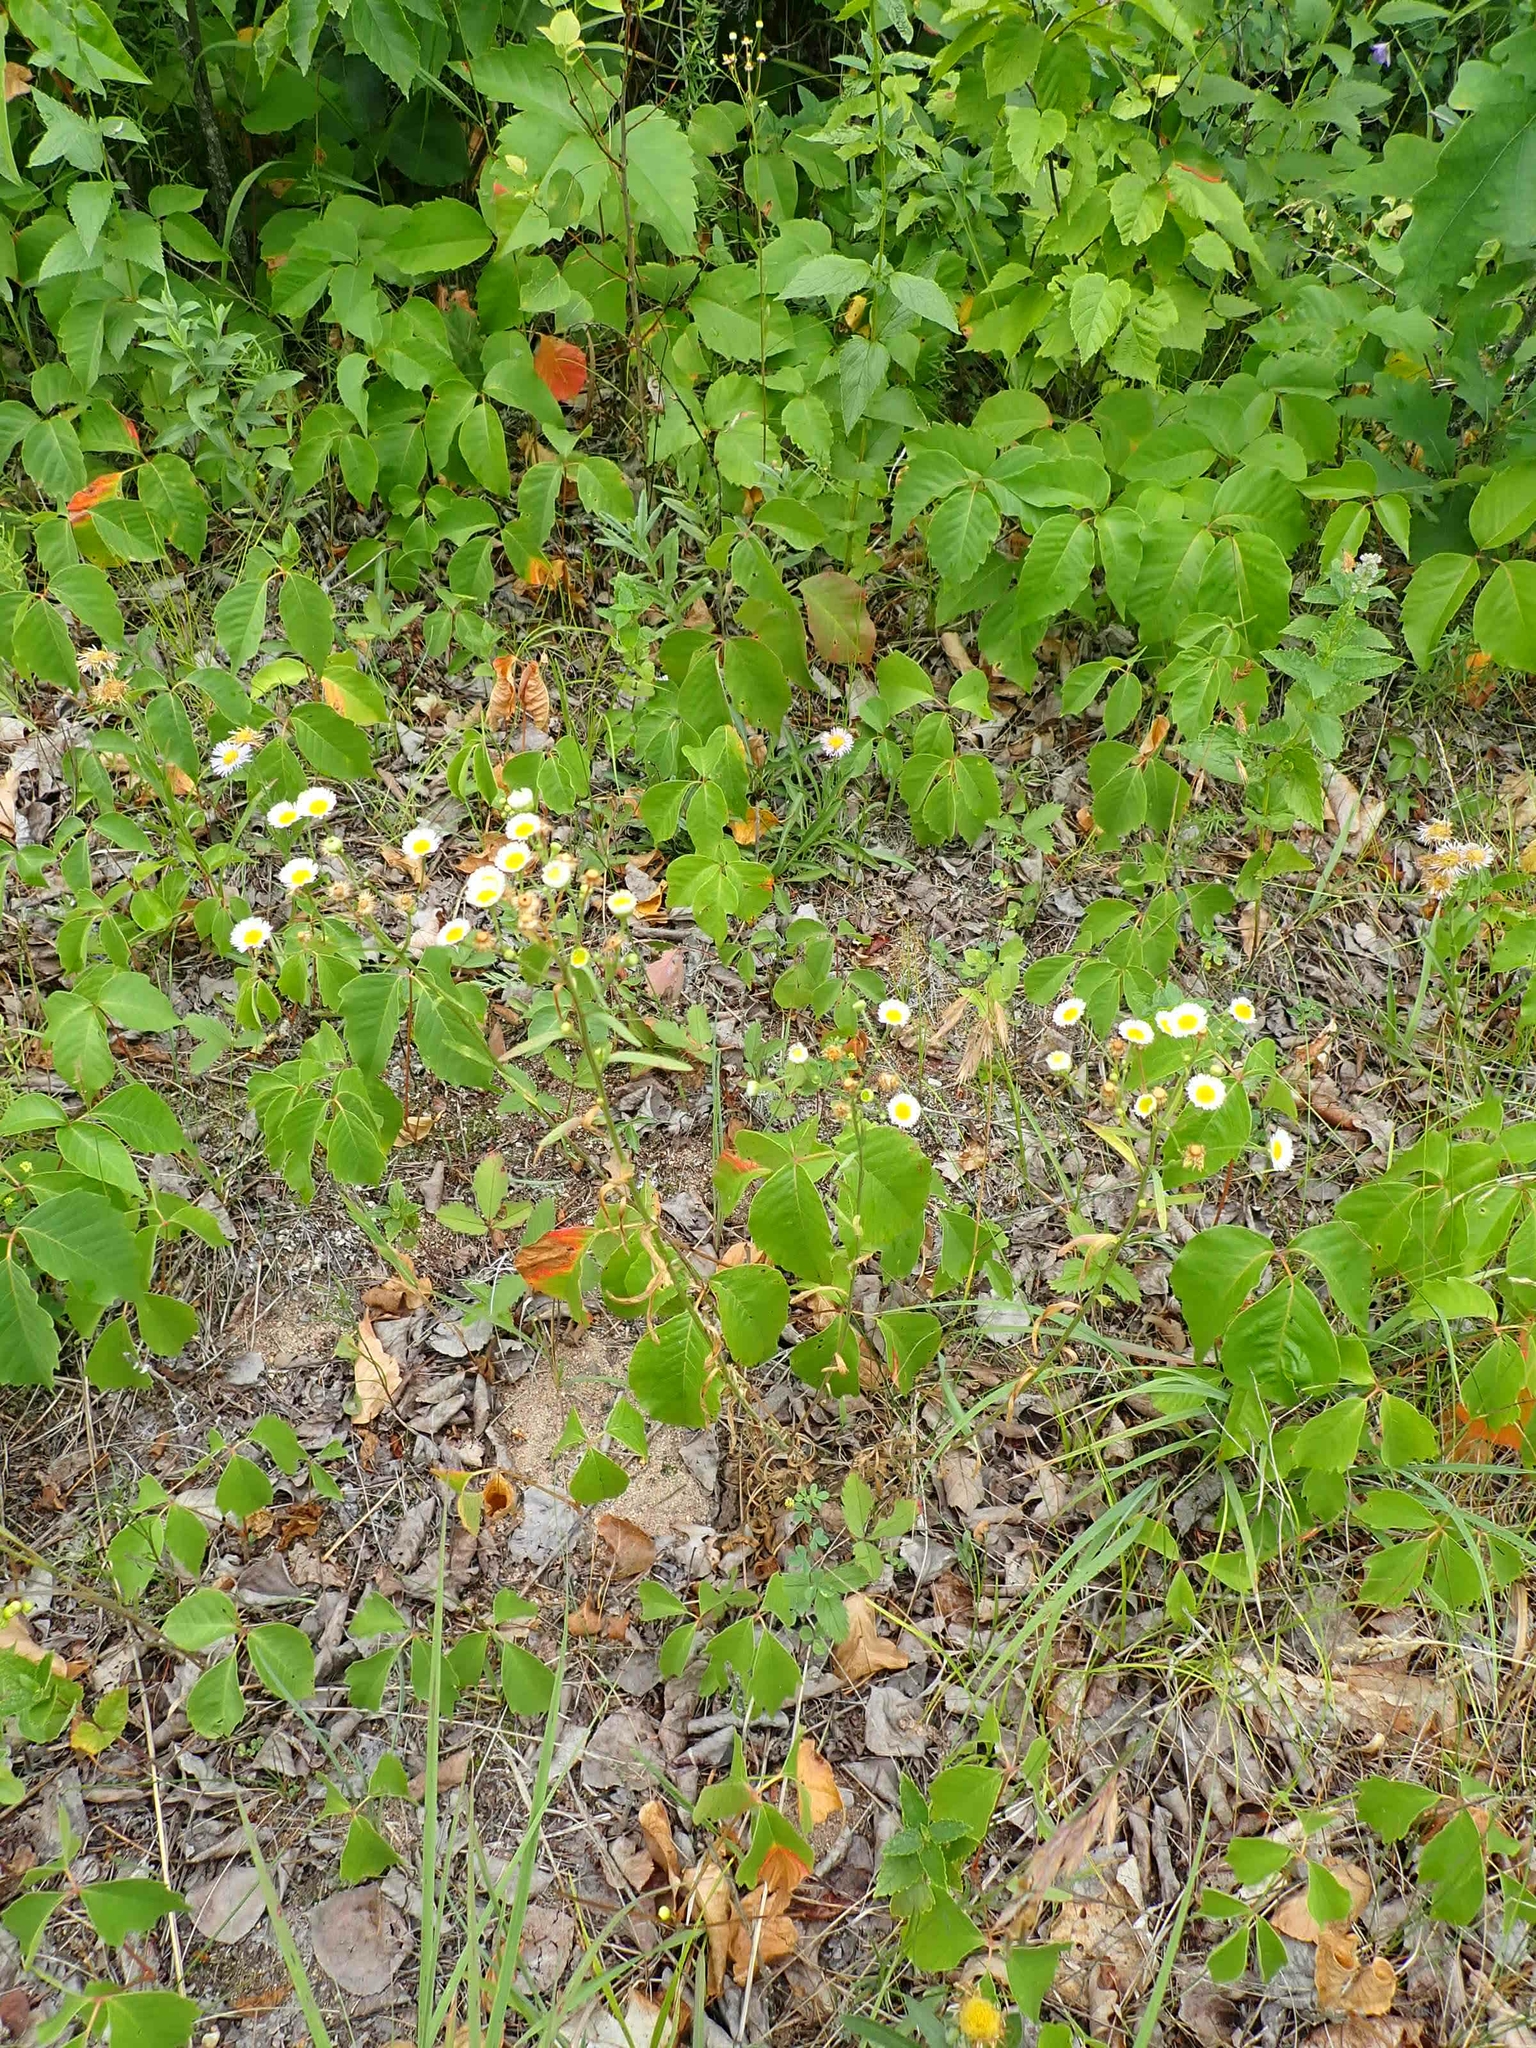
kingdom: Plantae
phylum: Tracheophyta
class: Magnoliopsida
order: Asterales
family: Asteraceae
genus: Erigeron
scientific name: Erigeron strigosus
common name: Common eastern fleabane
